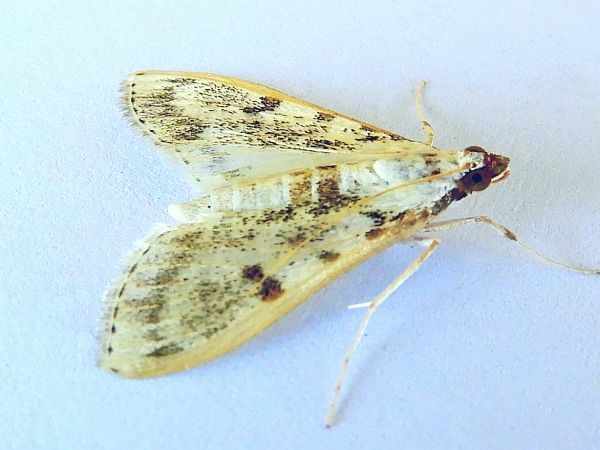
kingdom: Animalia
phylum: Arthropoda
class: Insecta
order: Lepidoptera
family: Crambidae
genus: Palpita
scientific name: Palpita gracilalis
